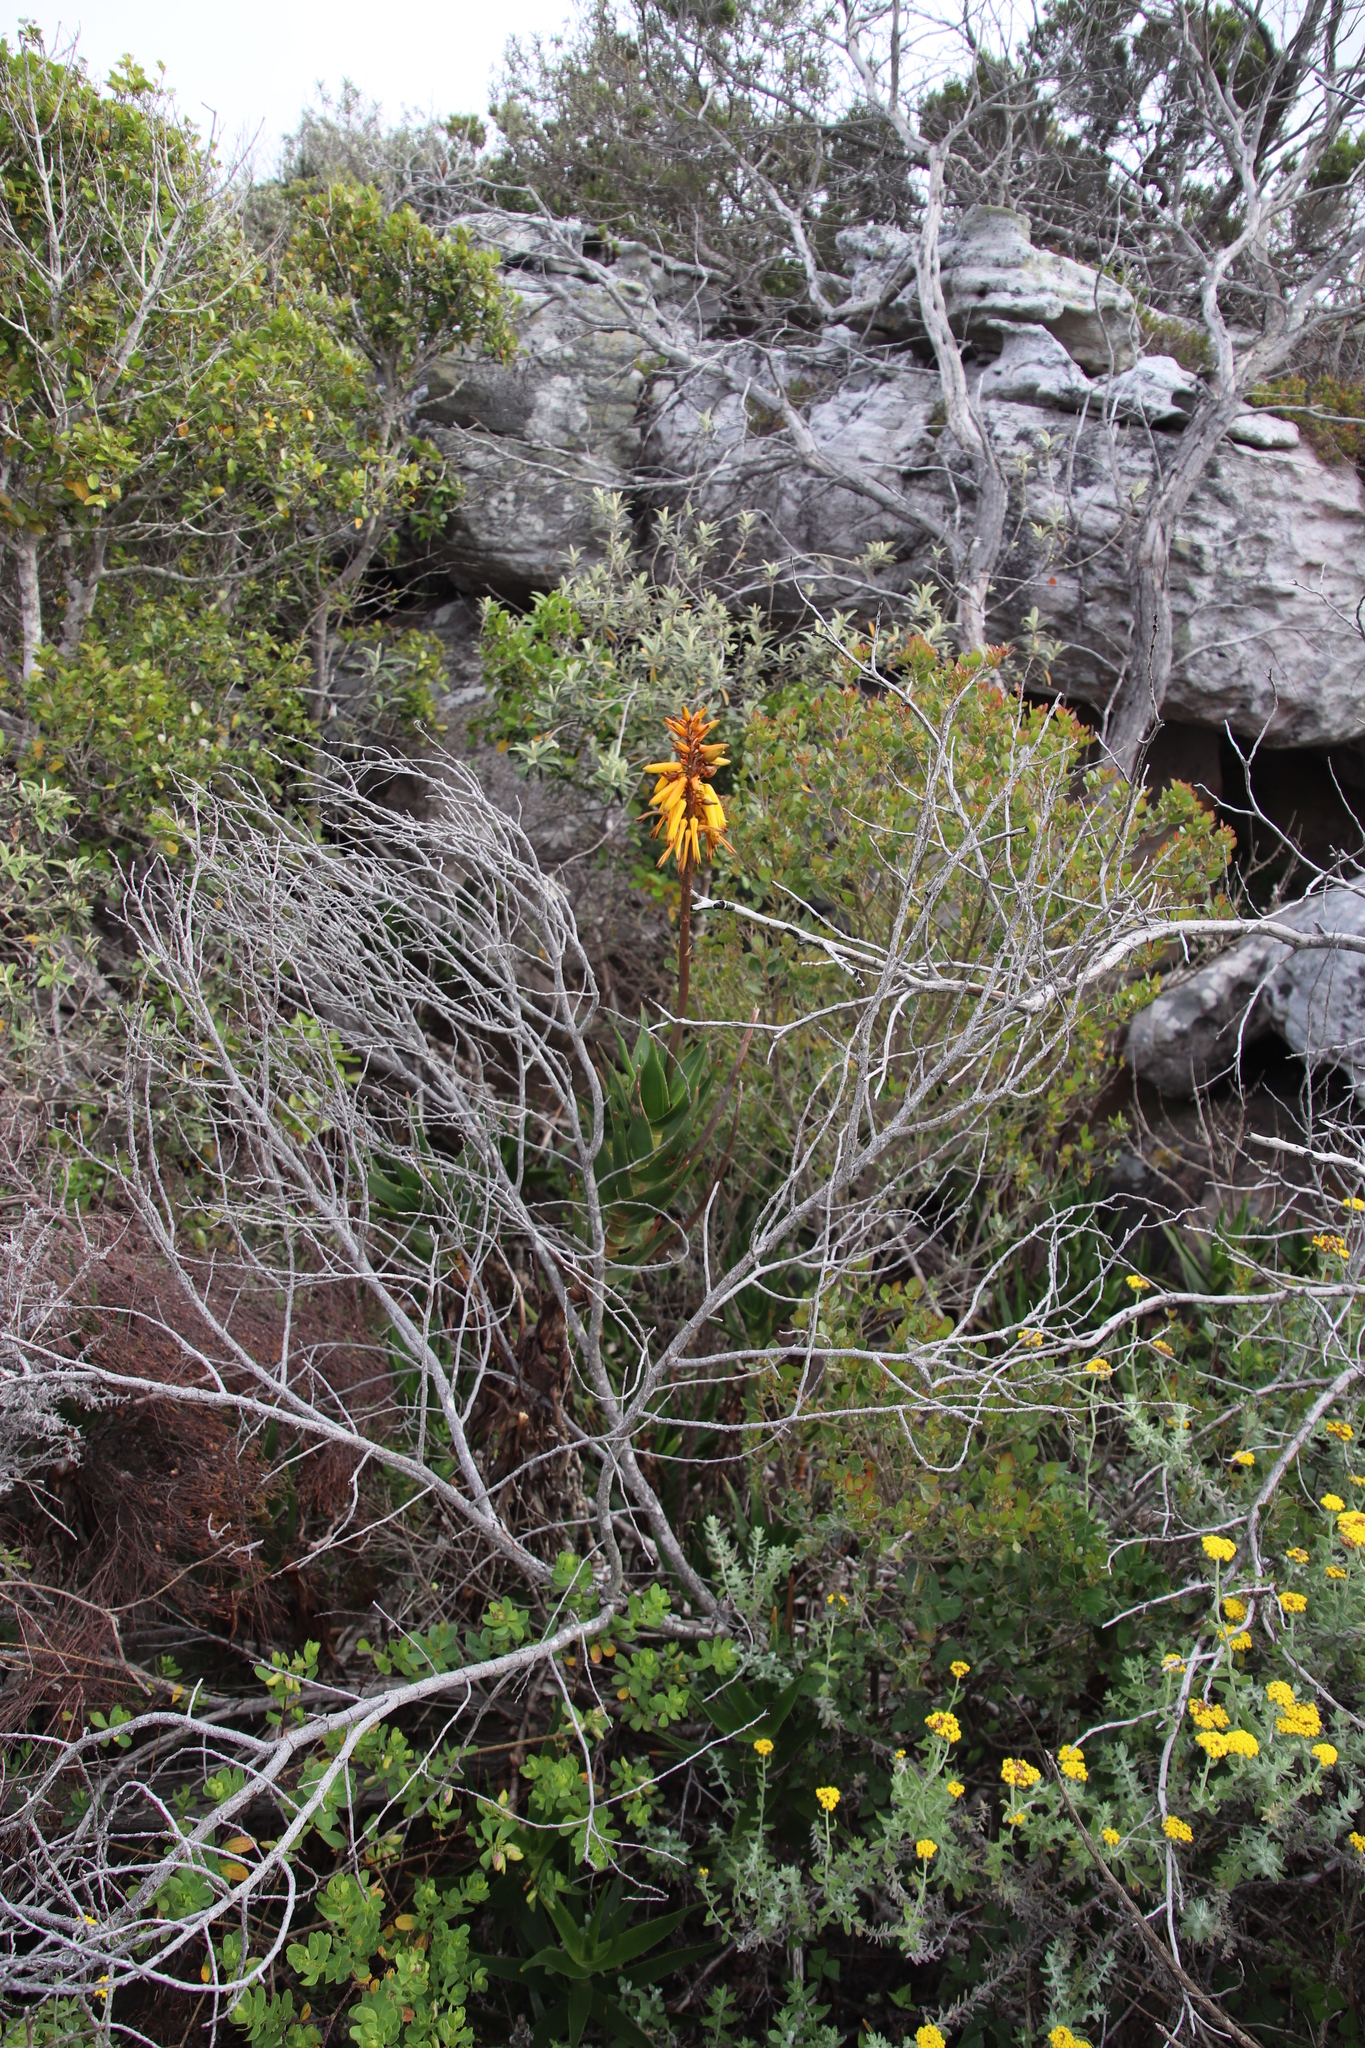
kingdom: Plantae
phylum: Tracheophyta
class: Liliopsida
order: Asparagales
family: Asphodelaceae
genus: Aloiampelos
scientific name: Aloiampelos commixta
